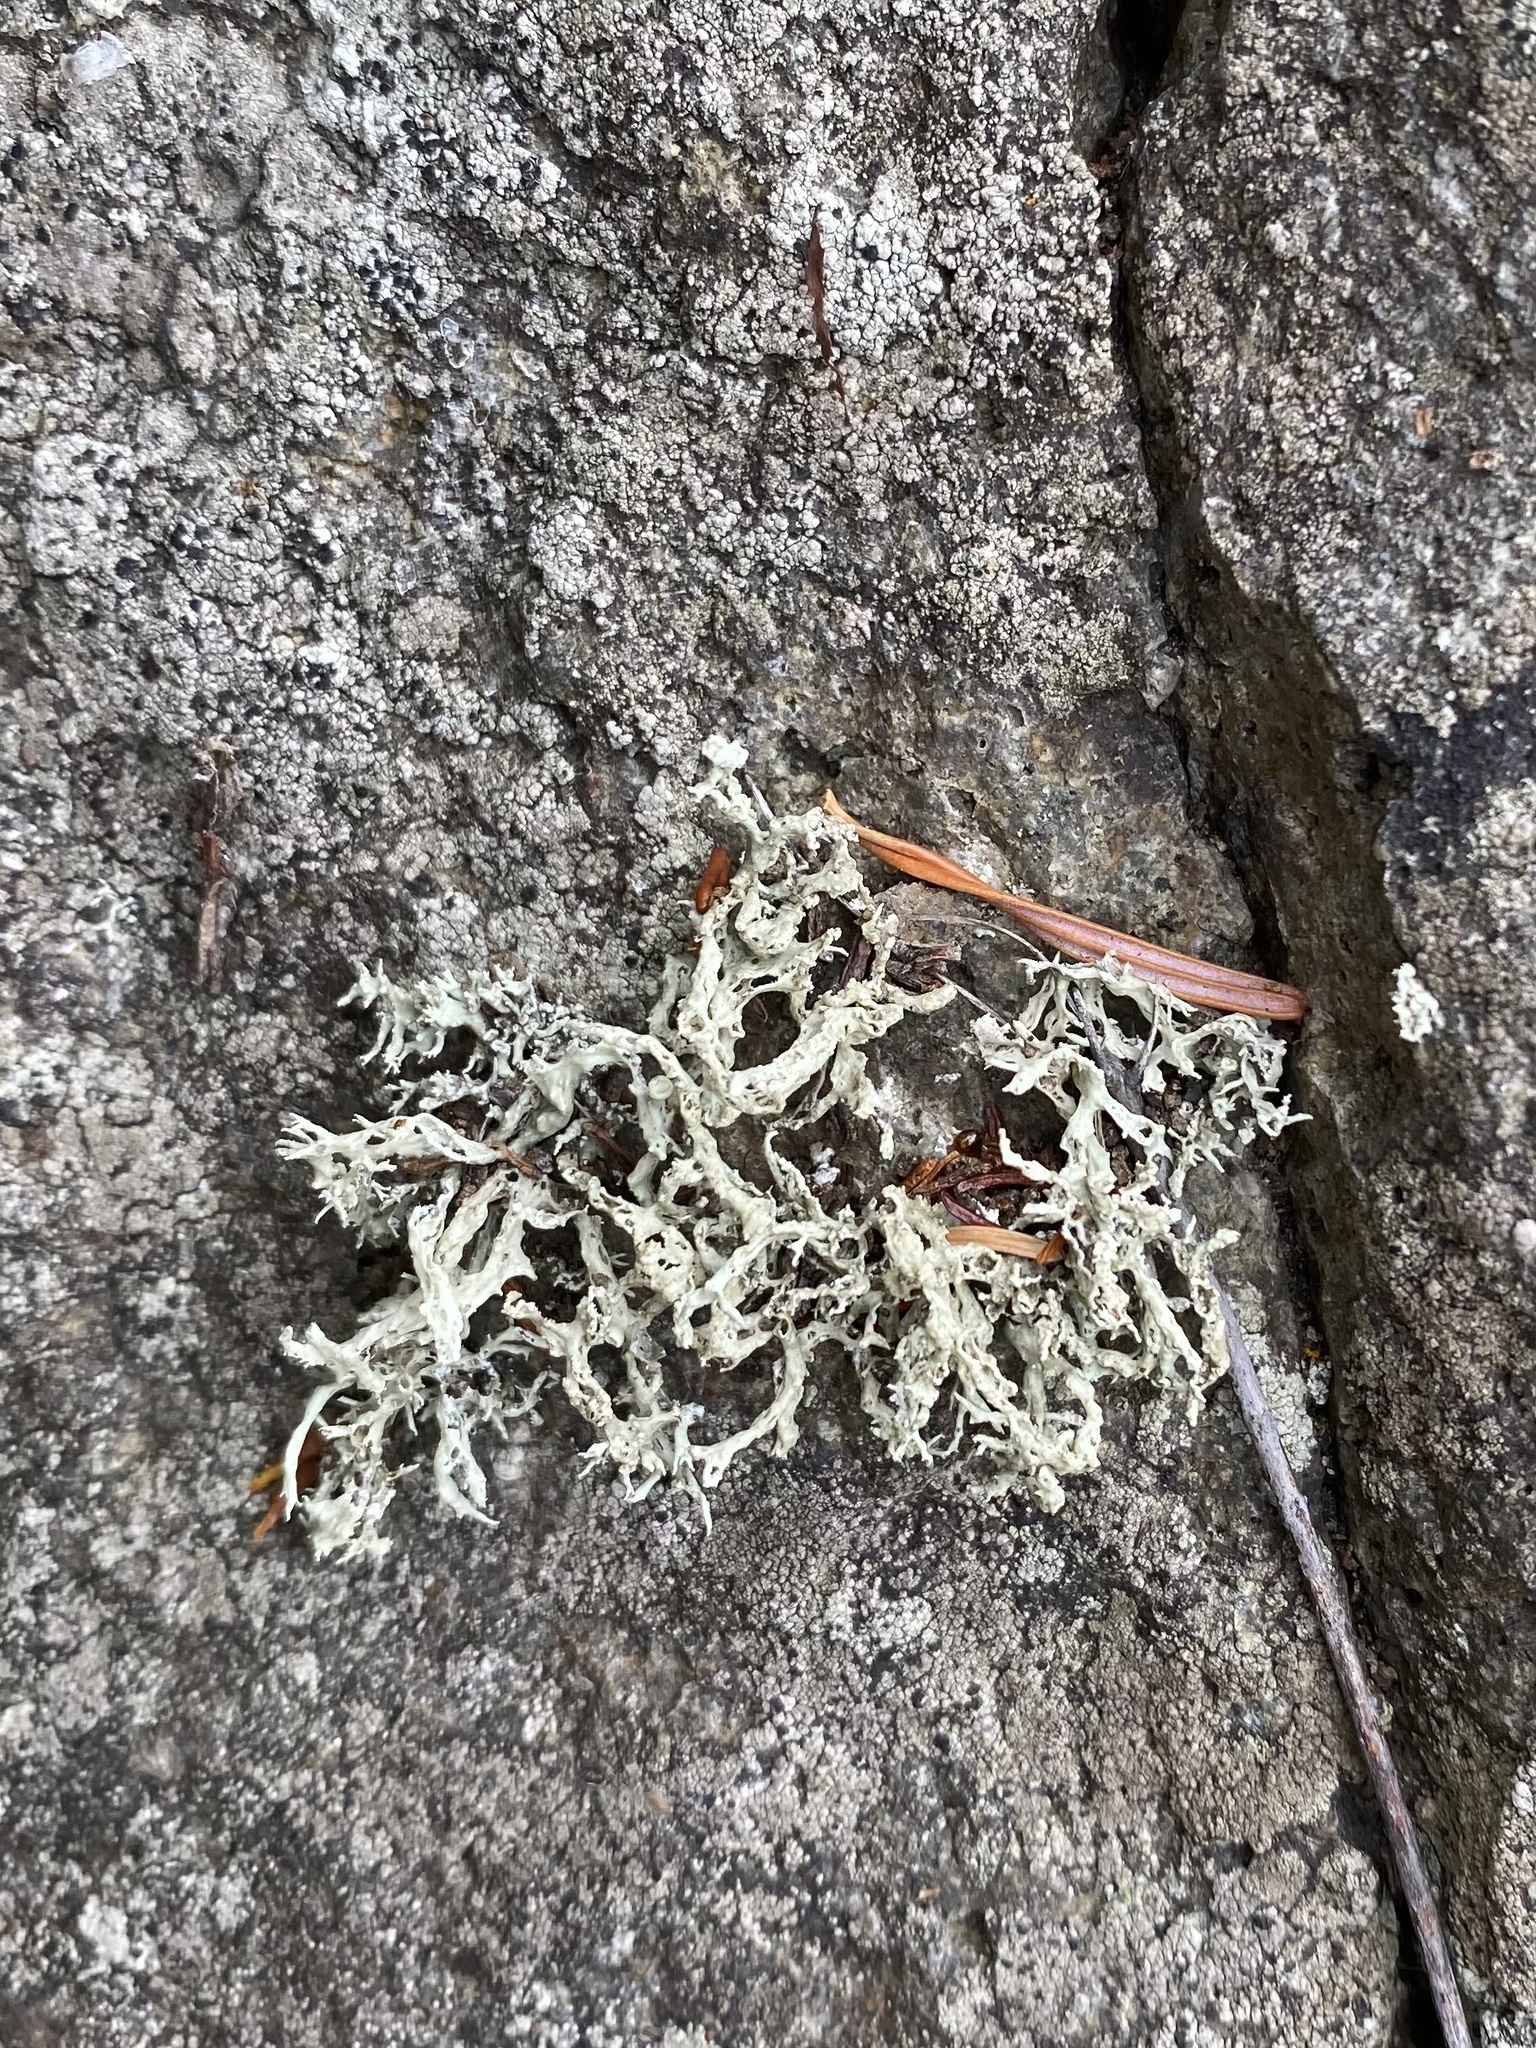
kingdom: Fungi
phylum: Ascomycota
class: Lecanoromycetes
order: Lecanorales
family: Ramalinaceae
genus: Ramalina
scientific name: Ramalina
